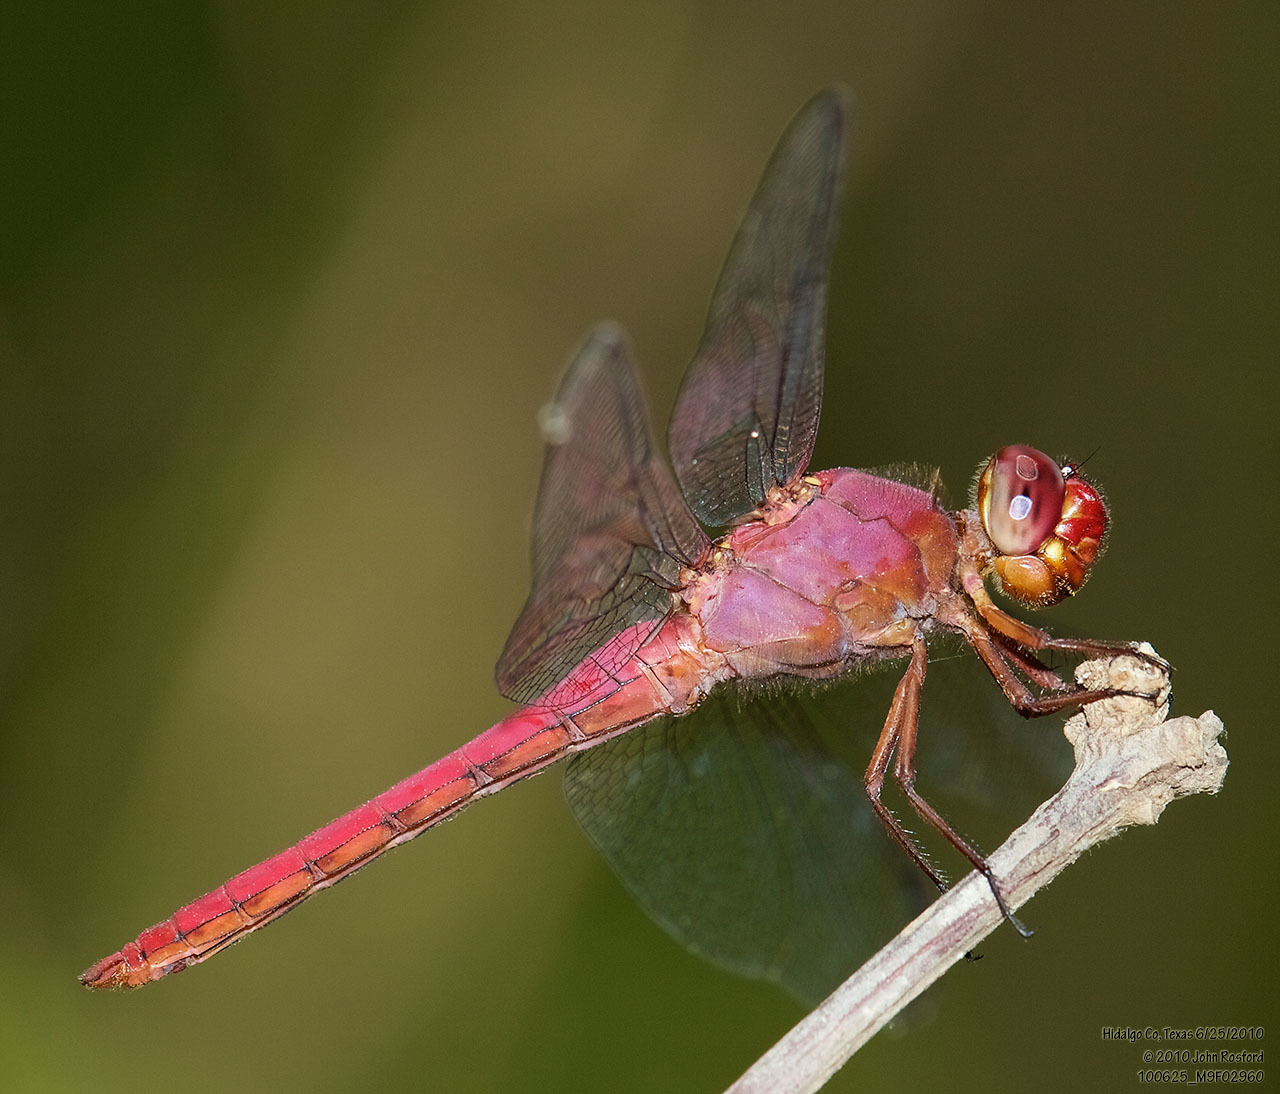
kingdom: Animalia
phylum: Arthropoda
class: Insecta
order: Odonata
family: Libellulidae
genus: Orthemis
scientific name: Orthemis discolor
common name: Carmine skimmer
